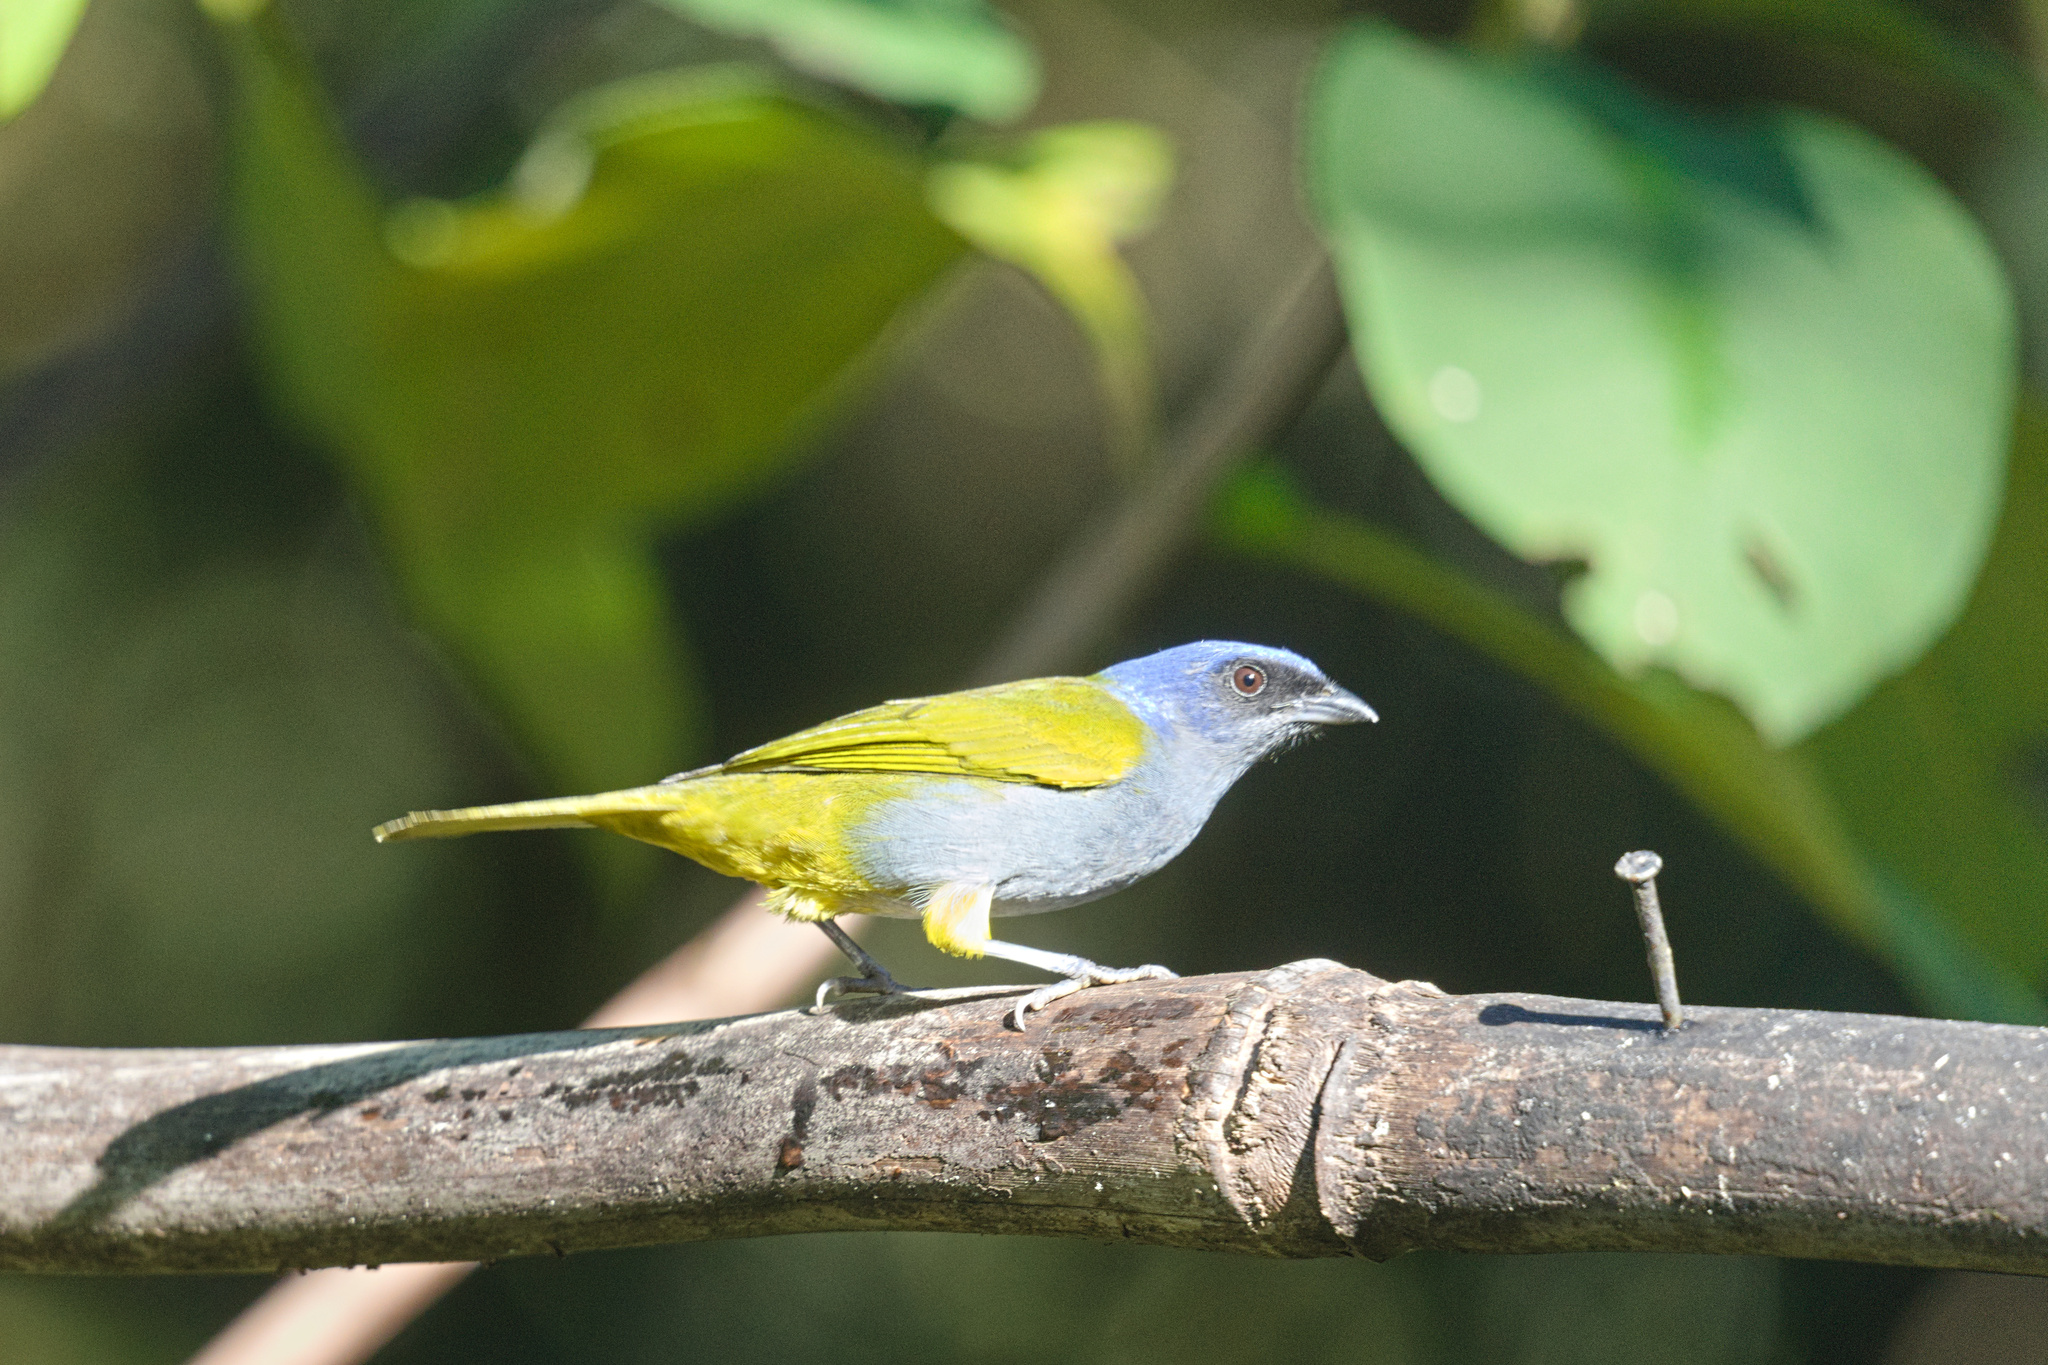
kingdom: Animalia
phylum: Chordata
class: Aves
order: Passeriformes
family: Thraupidae
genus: Sporathraupis
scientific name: Sporathraupis cyanocephala
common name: Blue-capped tanager
